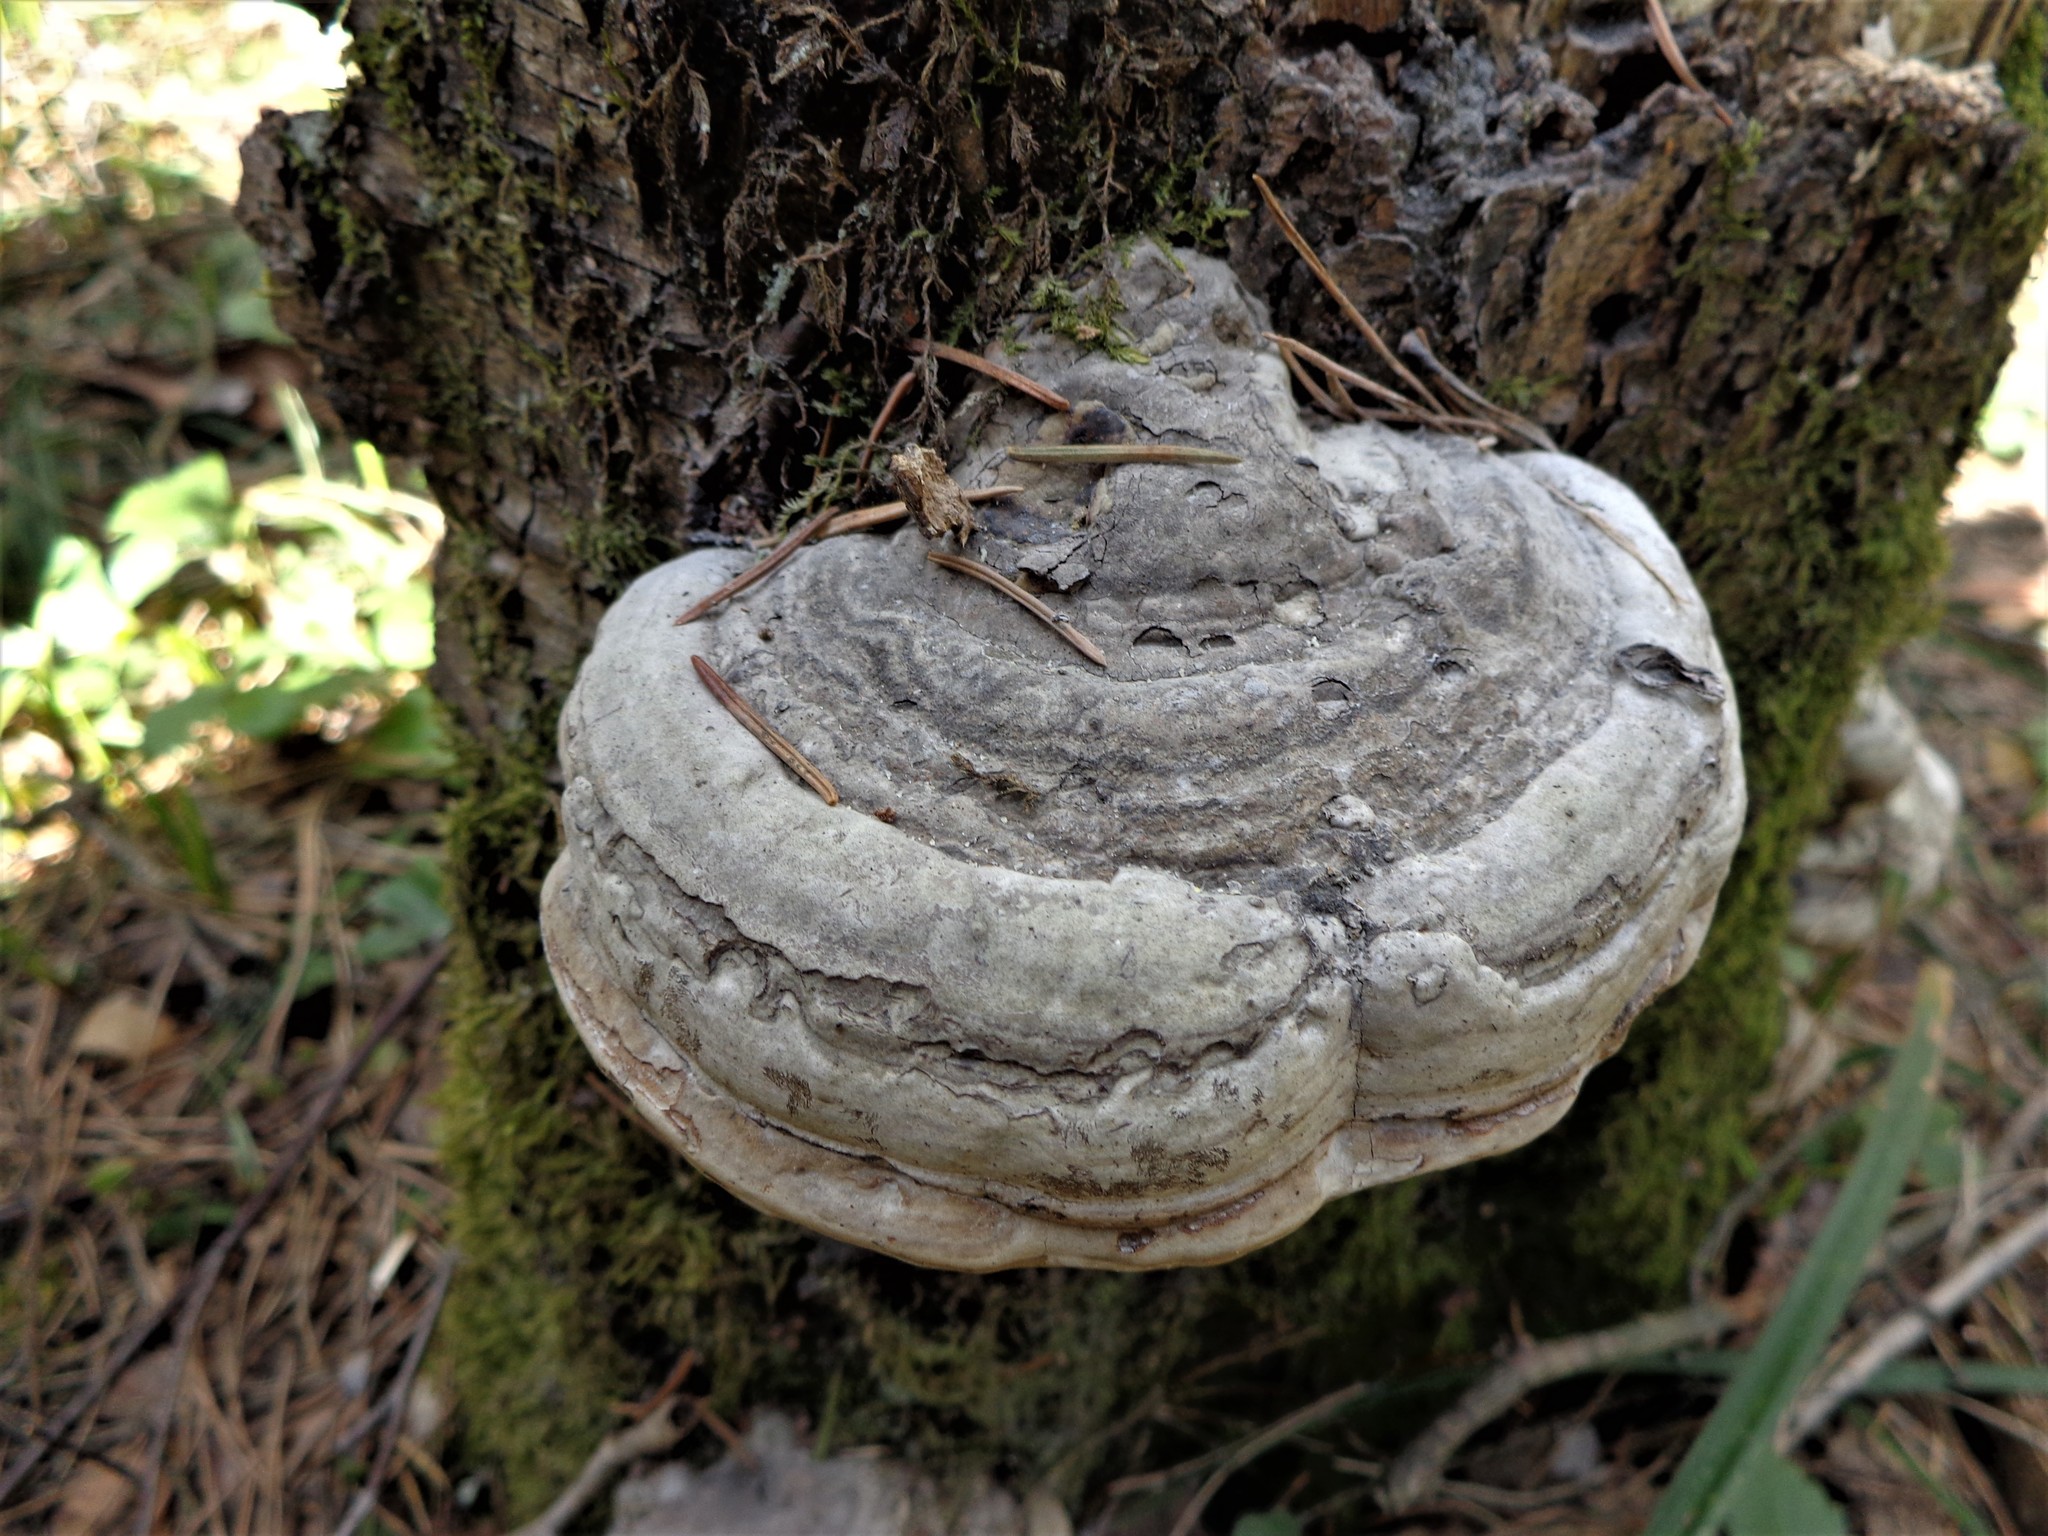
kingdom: Fungi
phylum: Basidiomycota
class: Agaricomycetes
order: Polyporales
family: Polyporaceae
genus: Fomes
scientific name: Fomes fomentarius
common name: Hoof fungus
